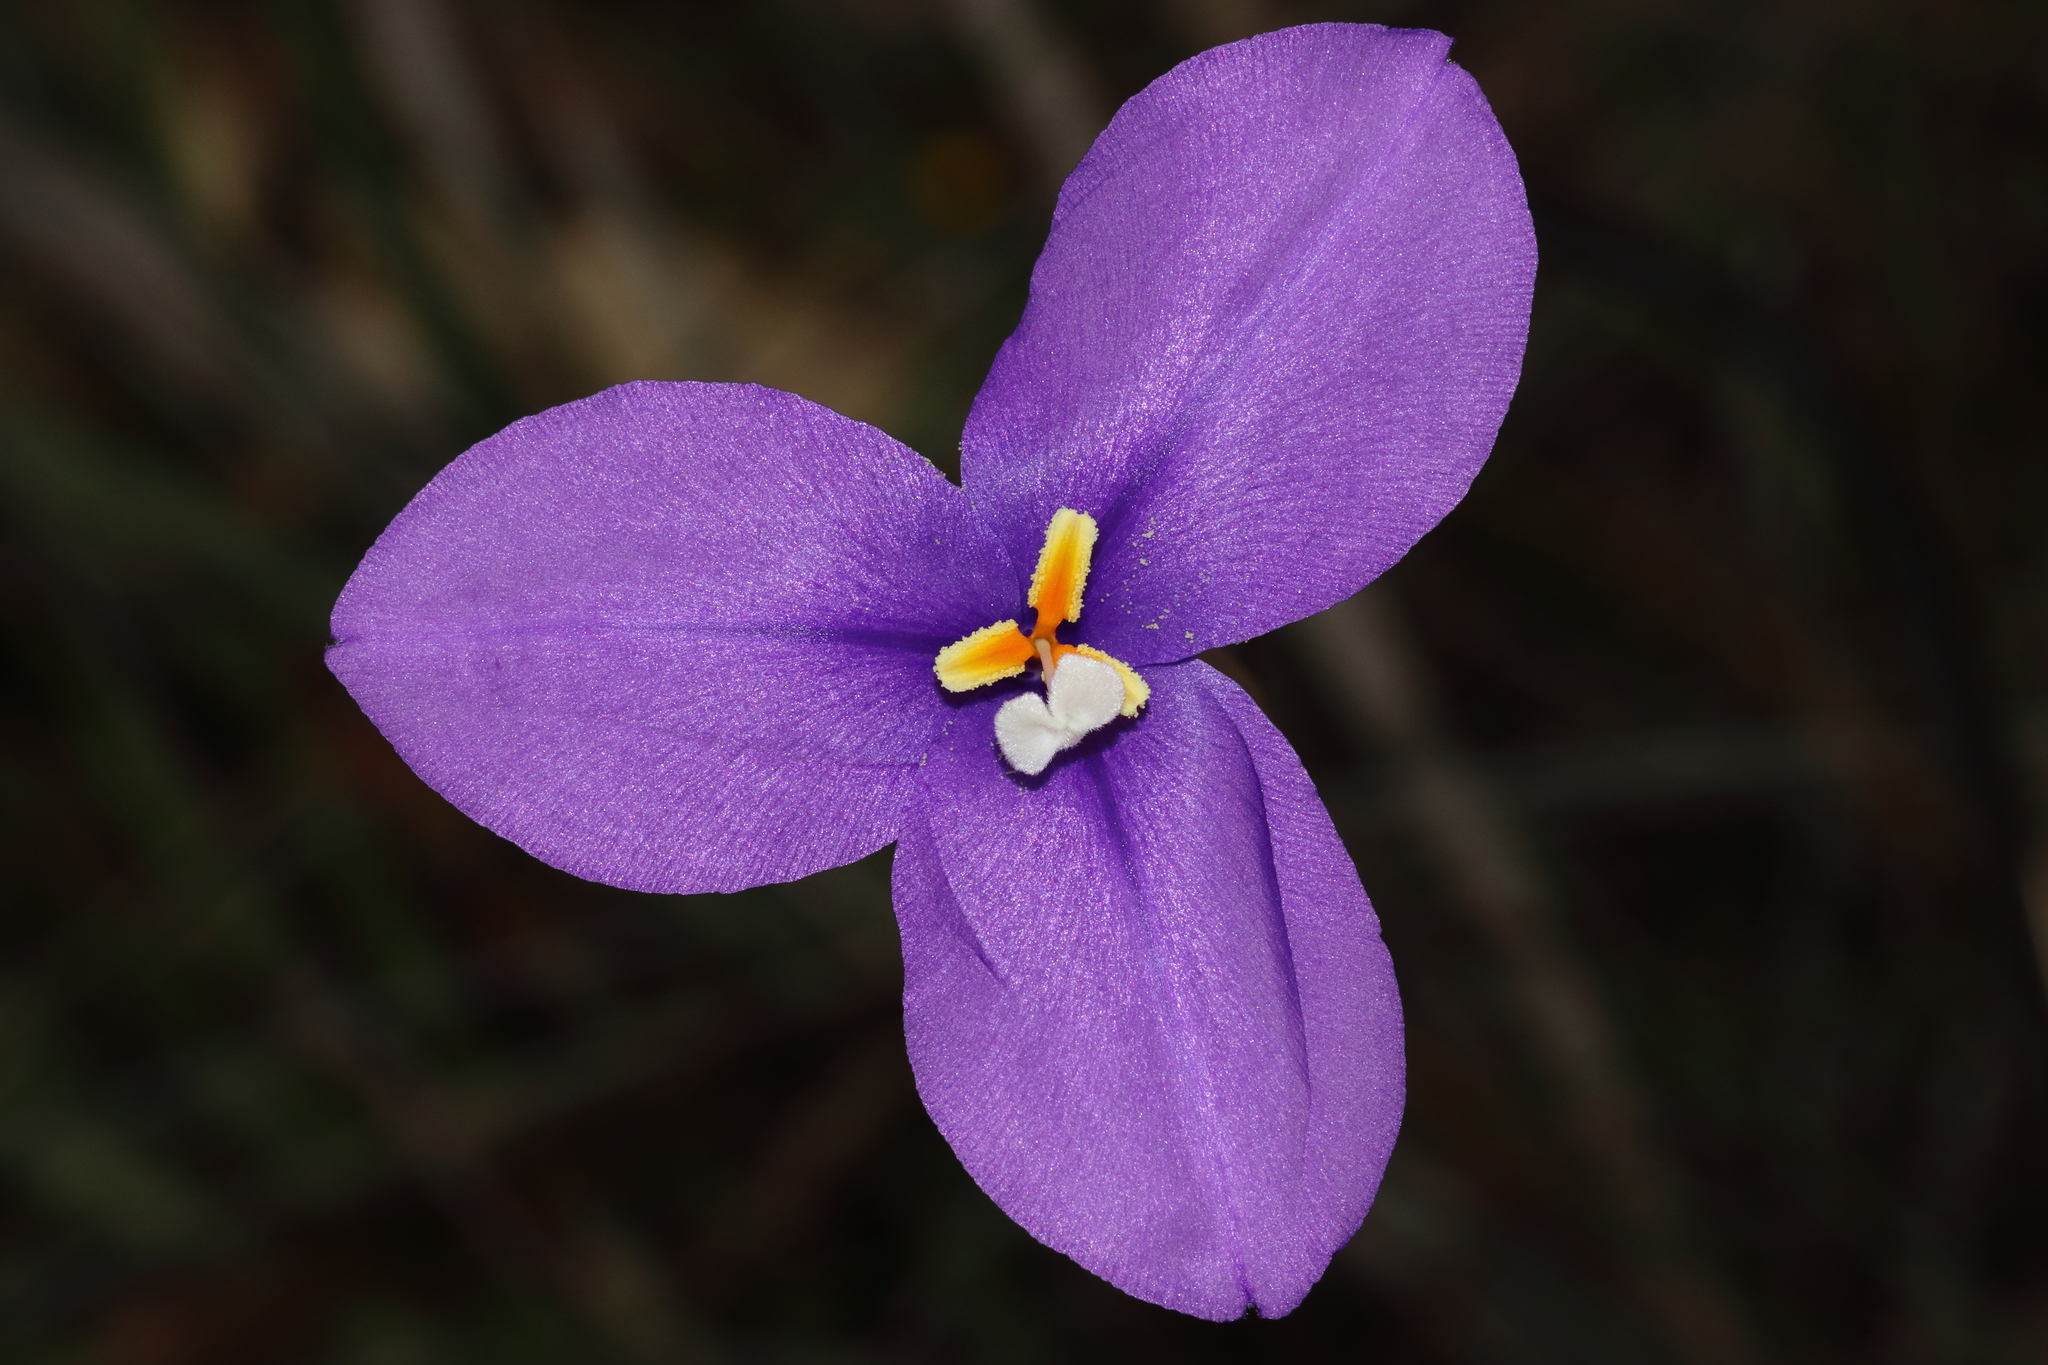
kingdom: Plantae
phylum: Tracheophyta
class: Liliopsida
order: Asparagales
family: Iridaceae
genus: Patersonia
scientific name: Patersonia occidentalis
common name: Long purple-flag
